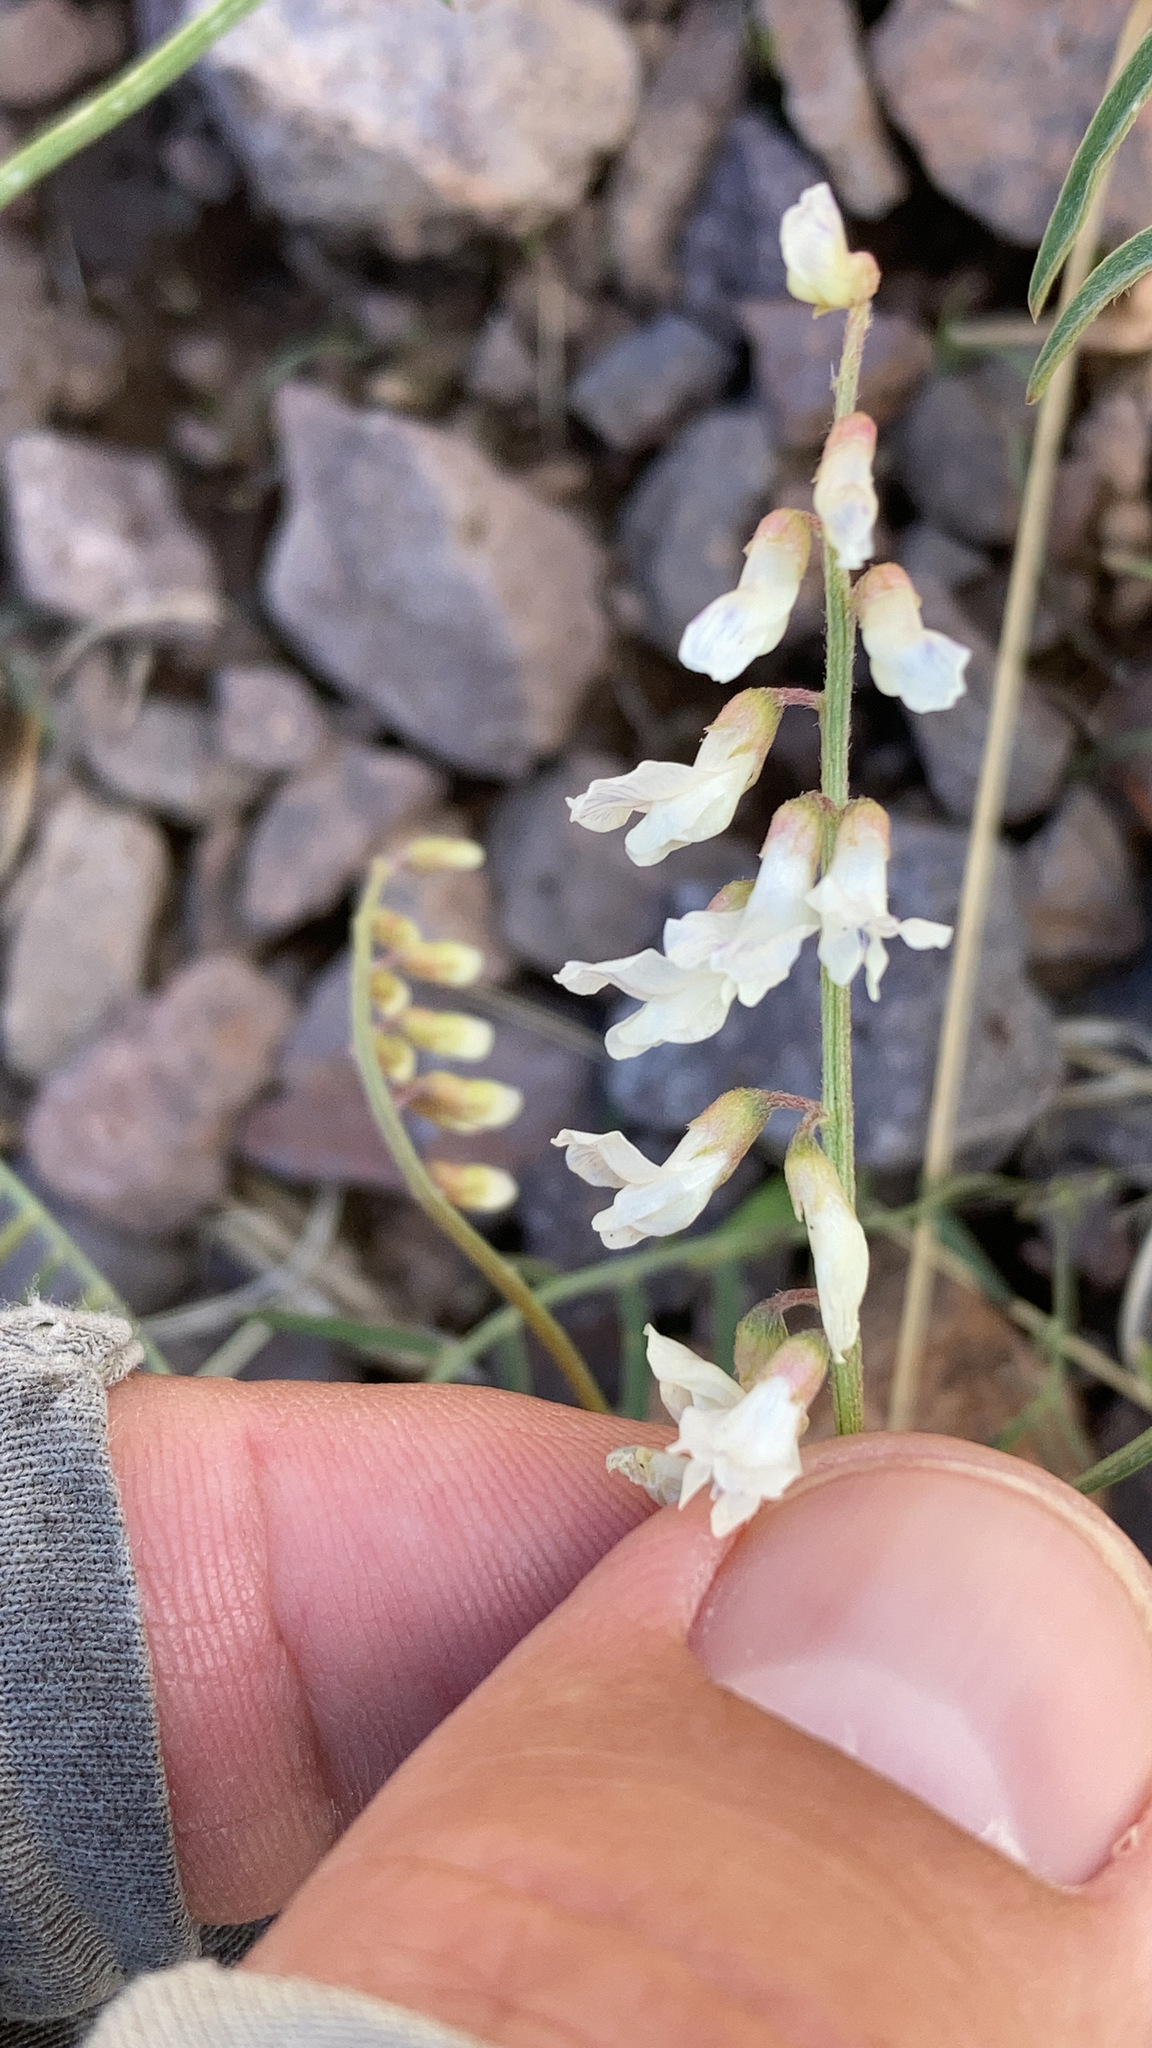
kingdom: Plantae
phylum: Tracheophyta
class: Magnoliopsida
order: Fabales
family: Fabaceae
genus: Vicia
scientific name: Vicia pulchella
